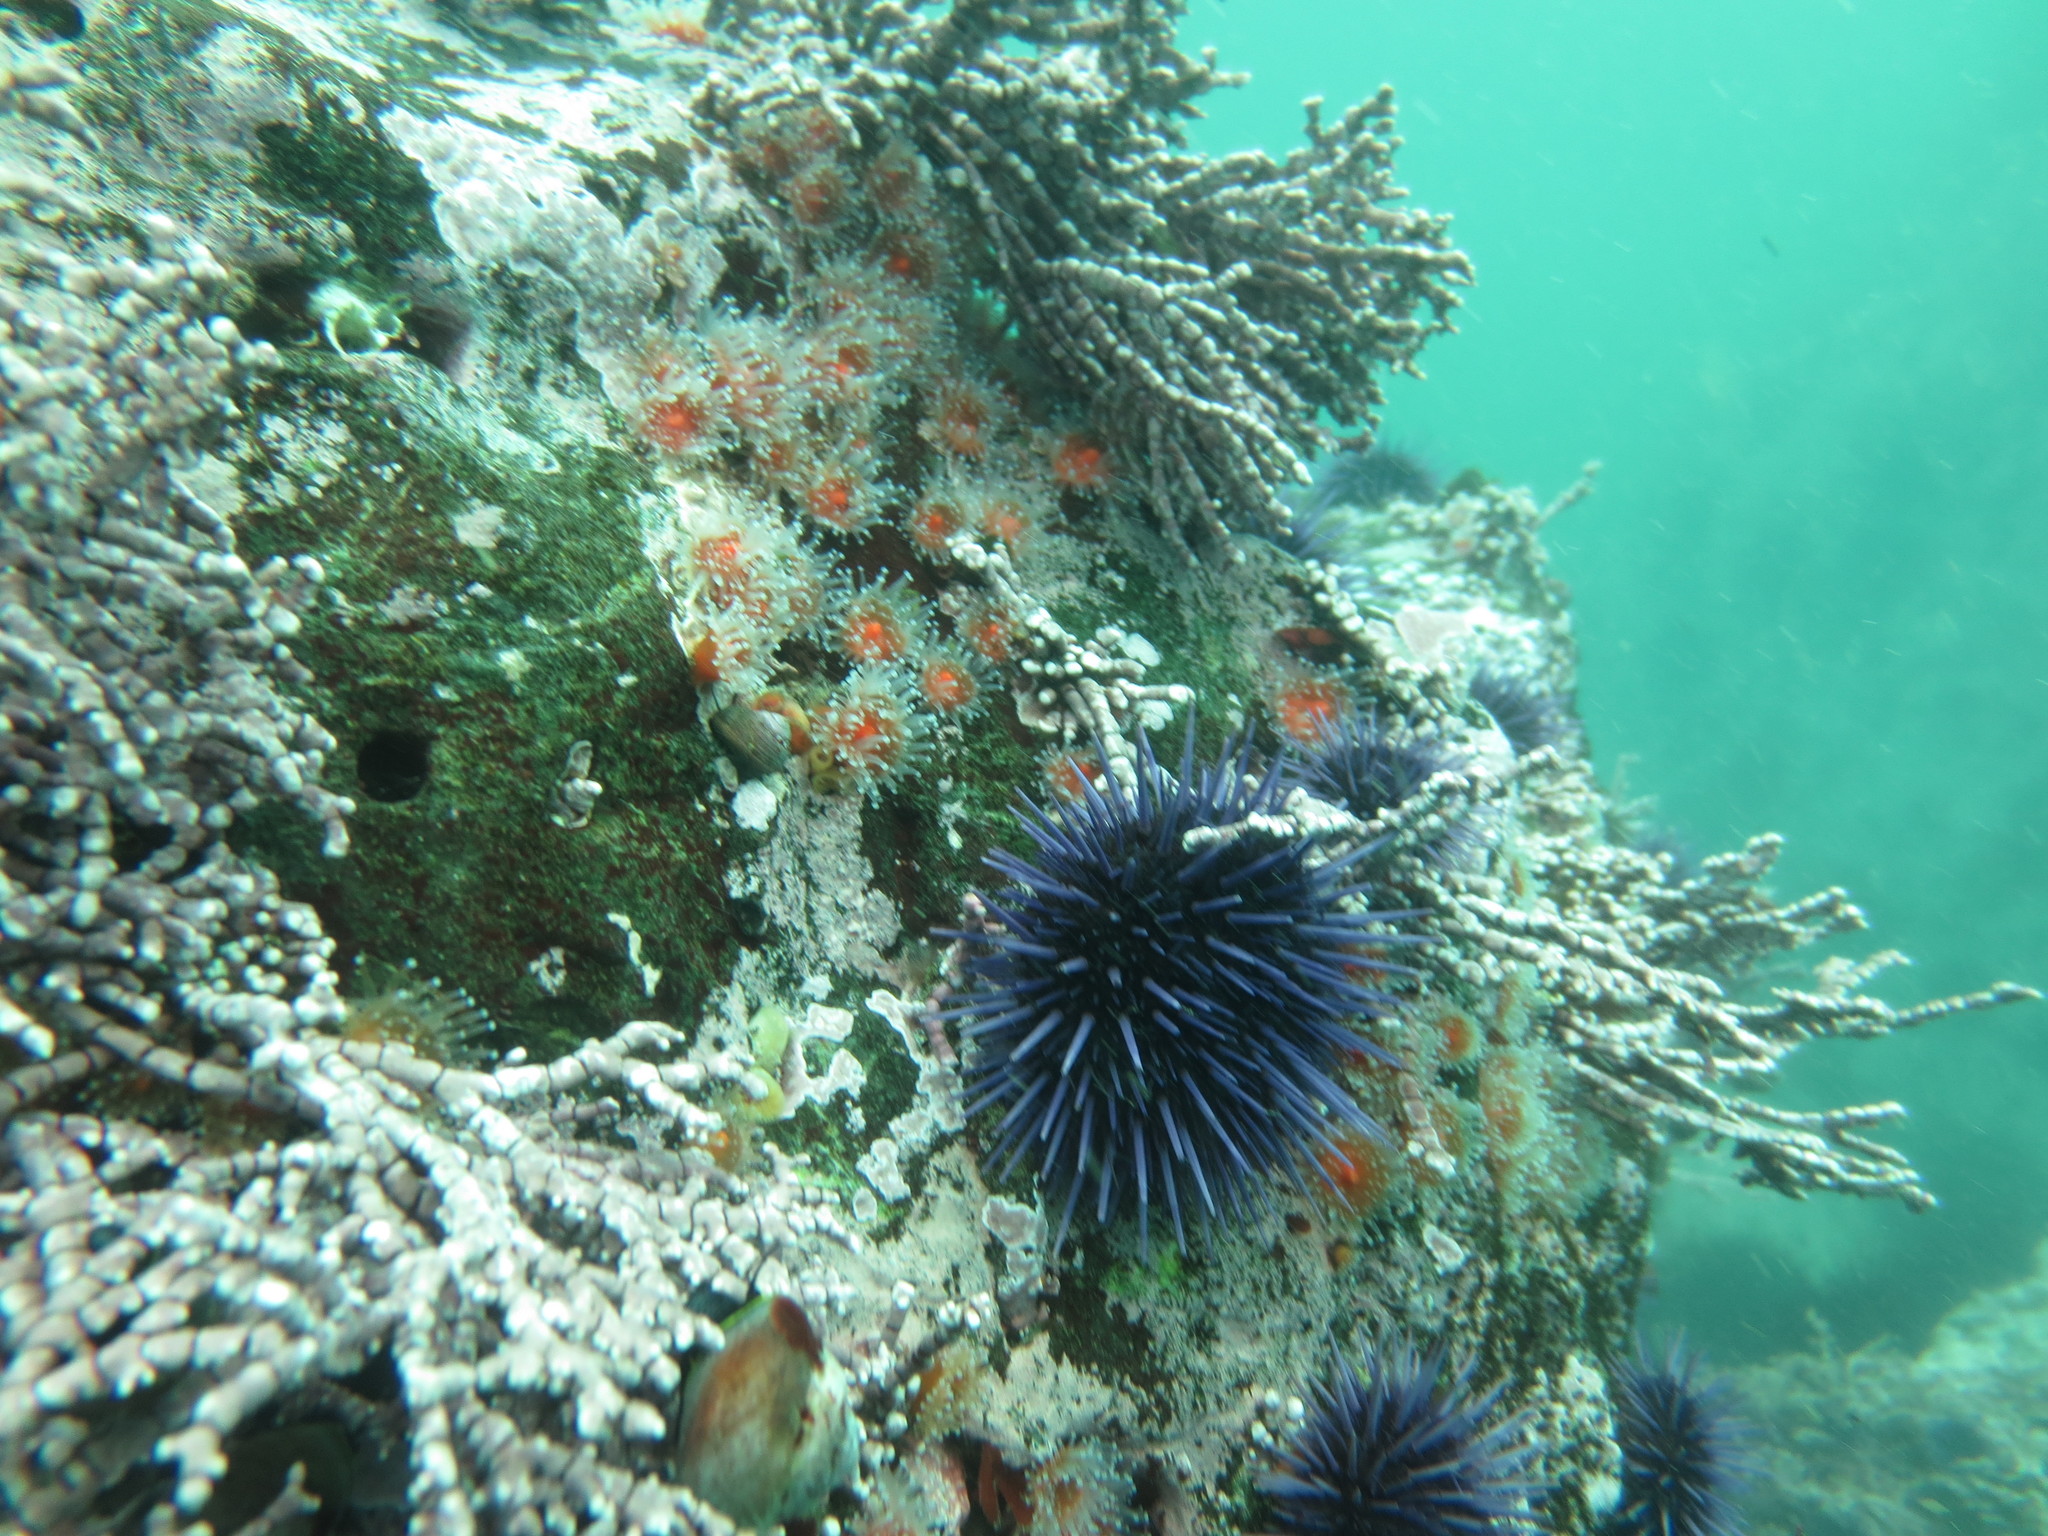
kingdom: Animalia
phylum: Cnidaria
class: Anthozoa
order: Corallimorpharia
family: Corallimorphidae
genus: Corynactis
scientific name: Corynactis californica
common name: Strawberry corallimorpharian
